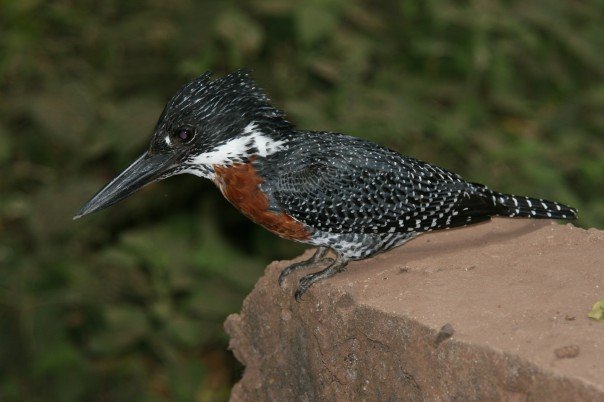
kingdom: Animalia
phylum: Chordata
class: Aves
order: Coraciiformes
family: Alcedinidae
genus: Megaceryle
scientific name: Megaceryle maxima
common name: Giant kingfisher
